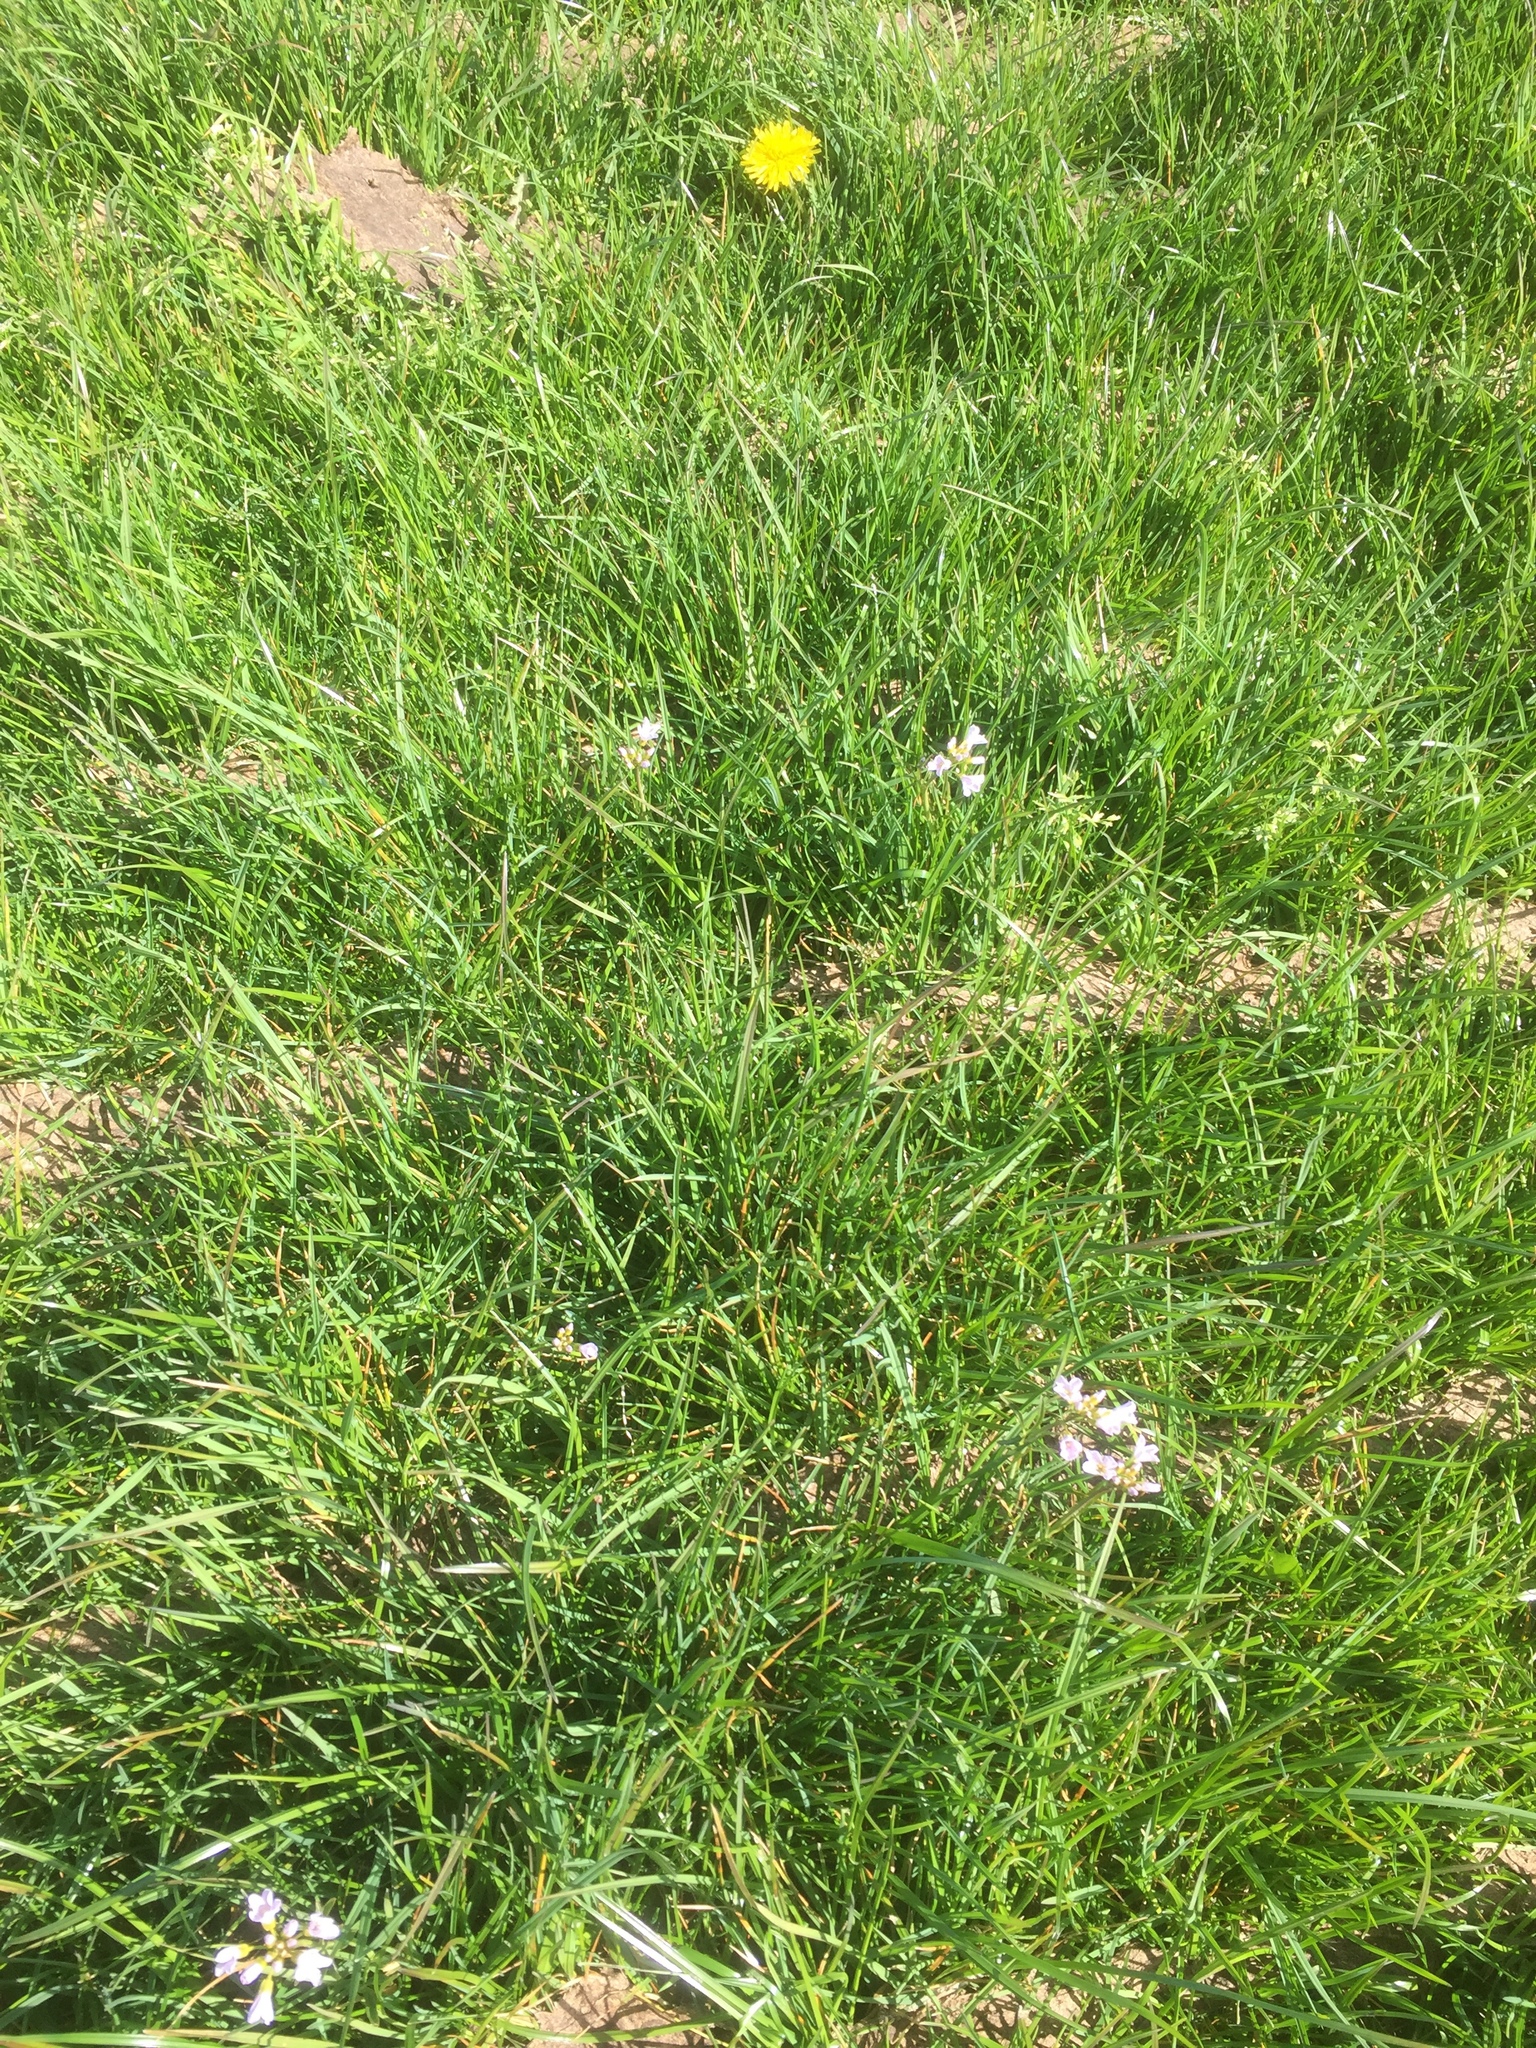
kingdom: Plantae
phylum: Tracheophyta
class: Magnoliopsida
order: Brassicales
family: Brassicaceae
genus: Cardamine
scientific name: Cardamine pratensis
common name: Cuckoo flower
